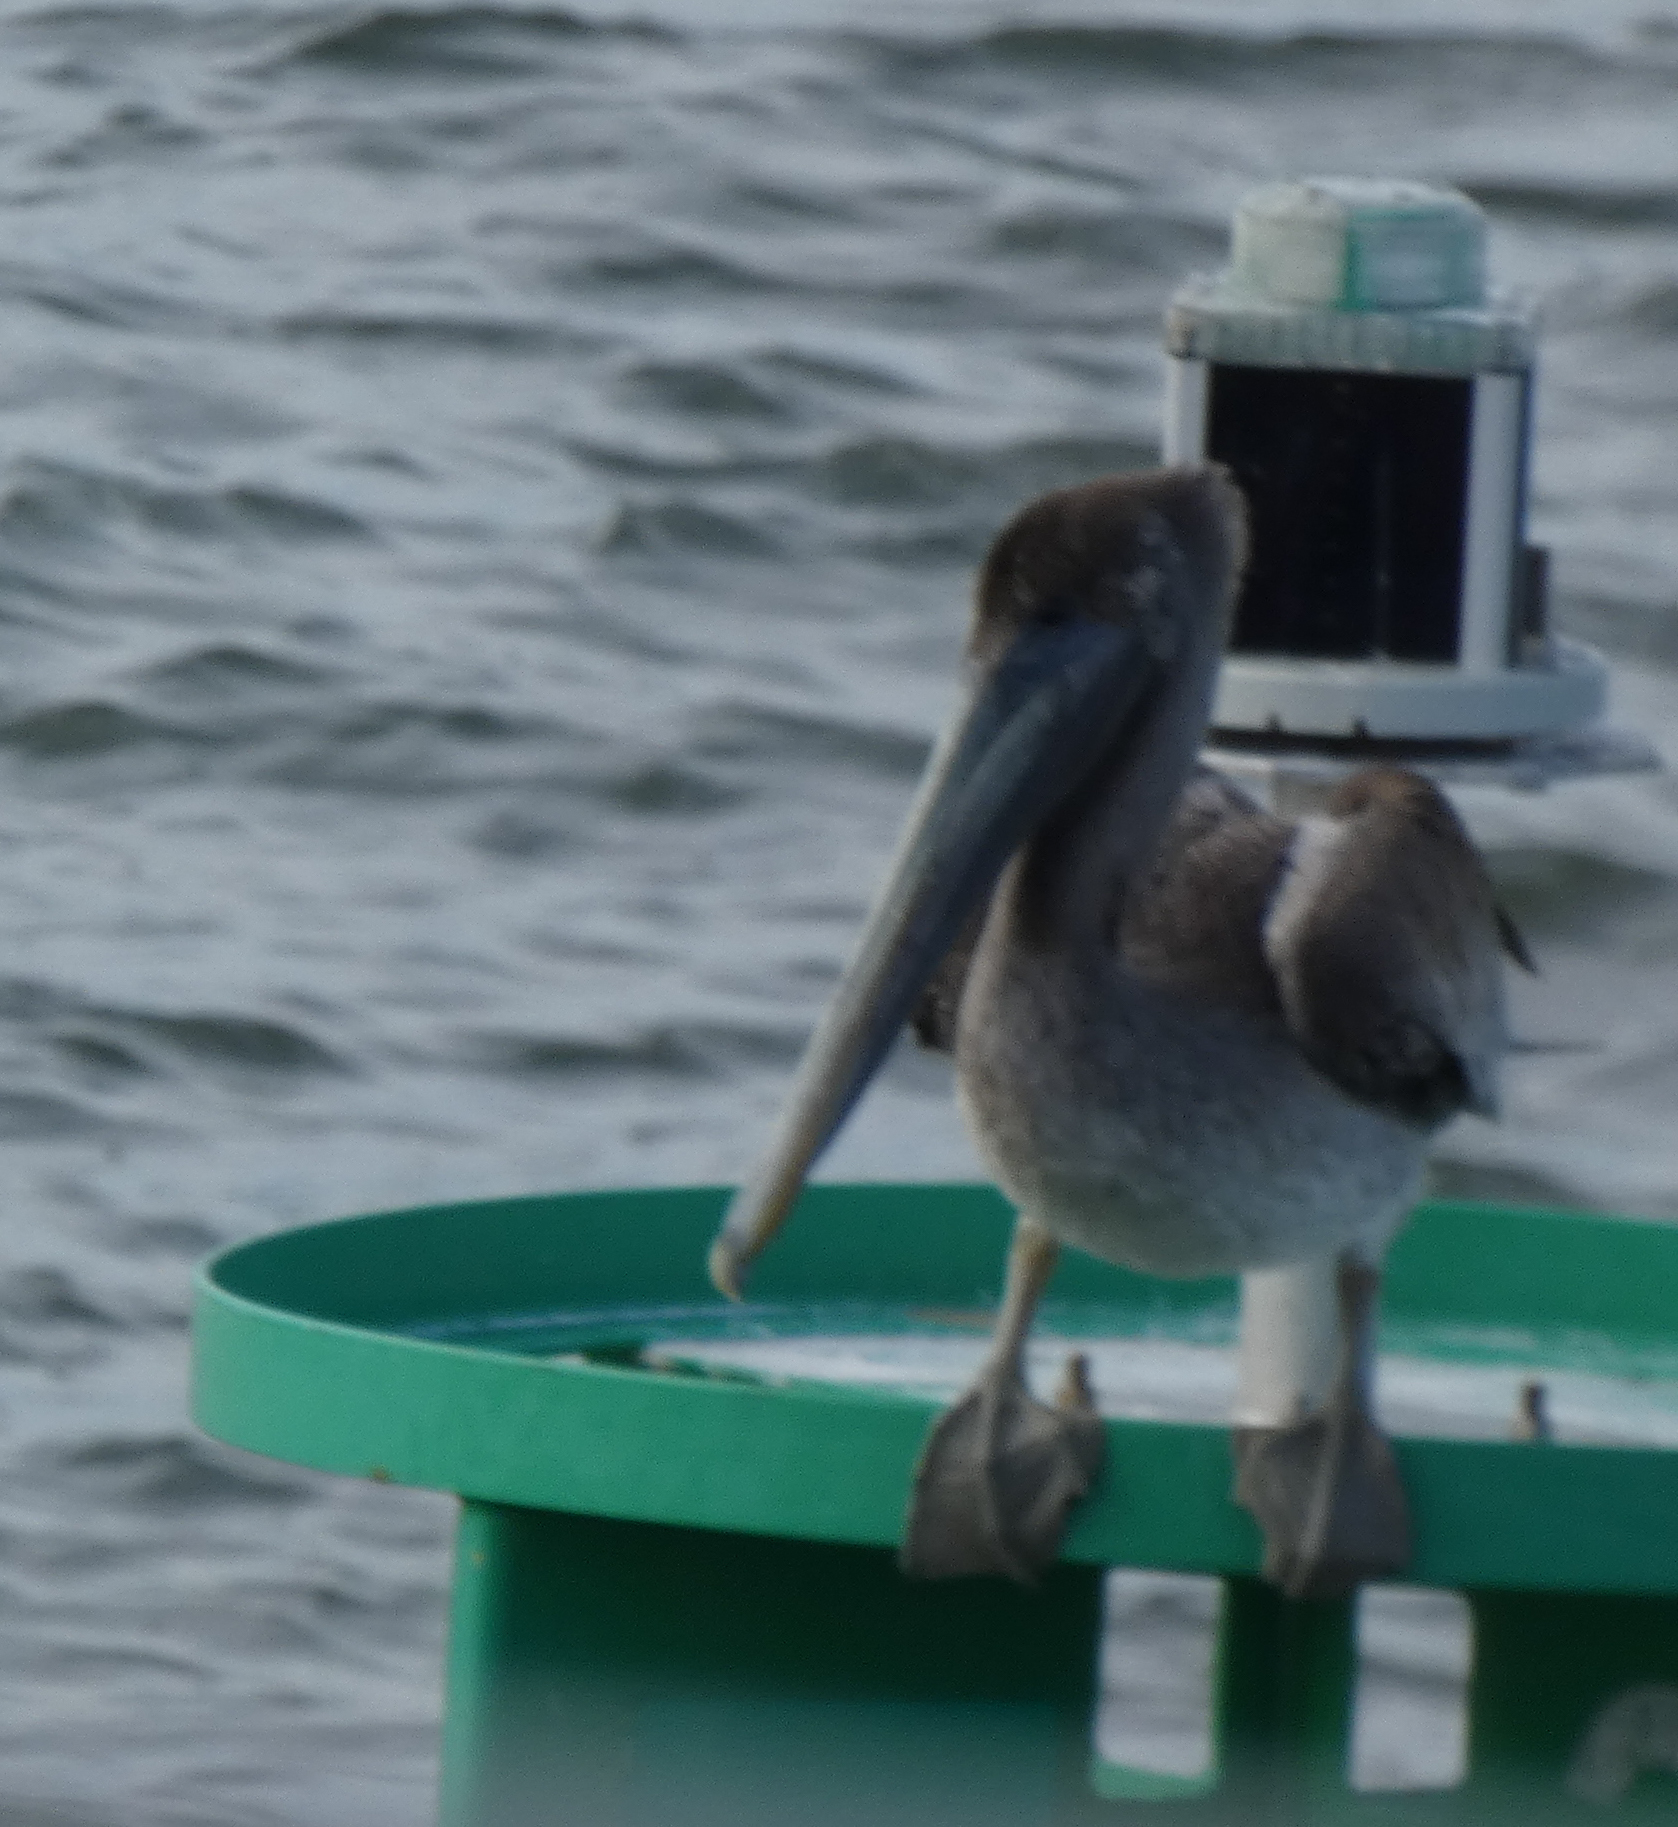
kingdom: Animalia
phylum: Chordata
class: Aves
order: Pelecaniformes
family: Pelecanidae
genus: Pelecanus
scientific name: Pelecanus occidentalis
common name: Brown pelican
